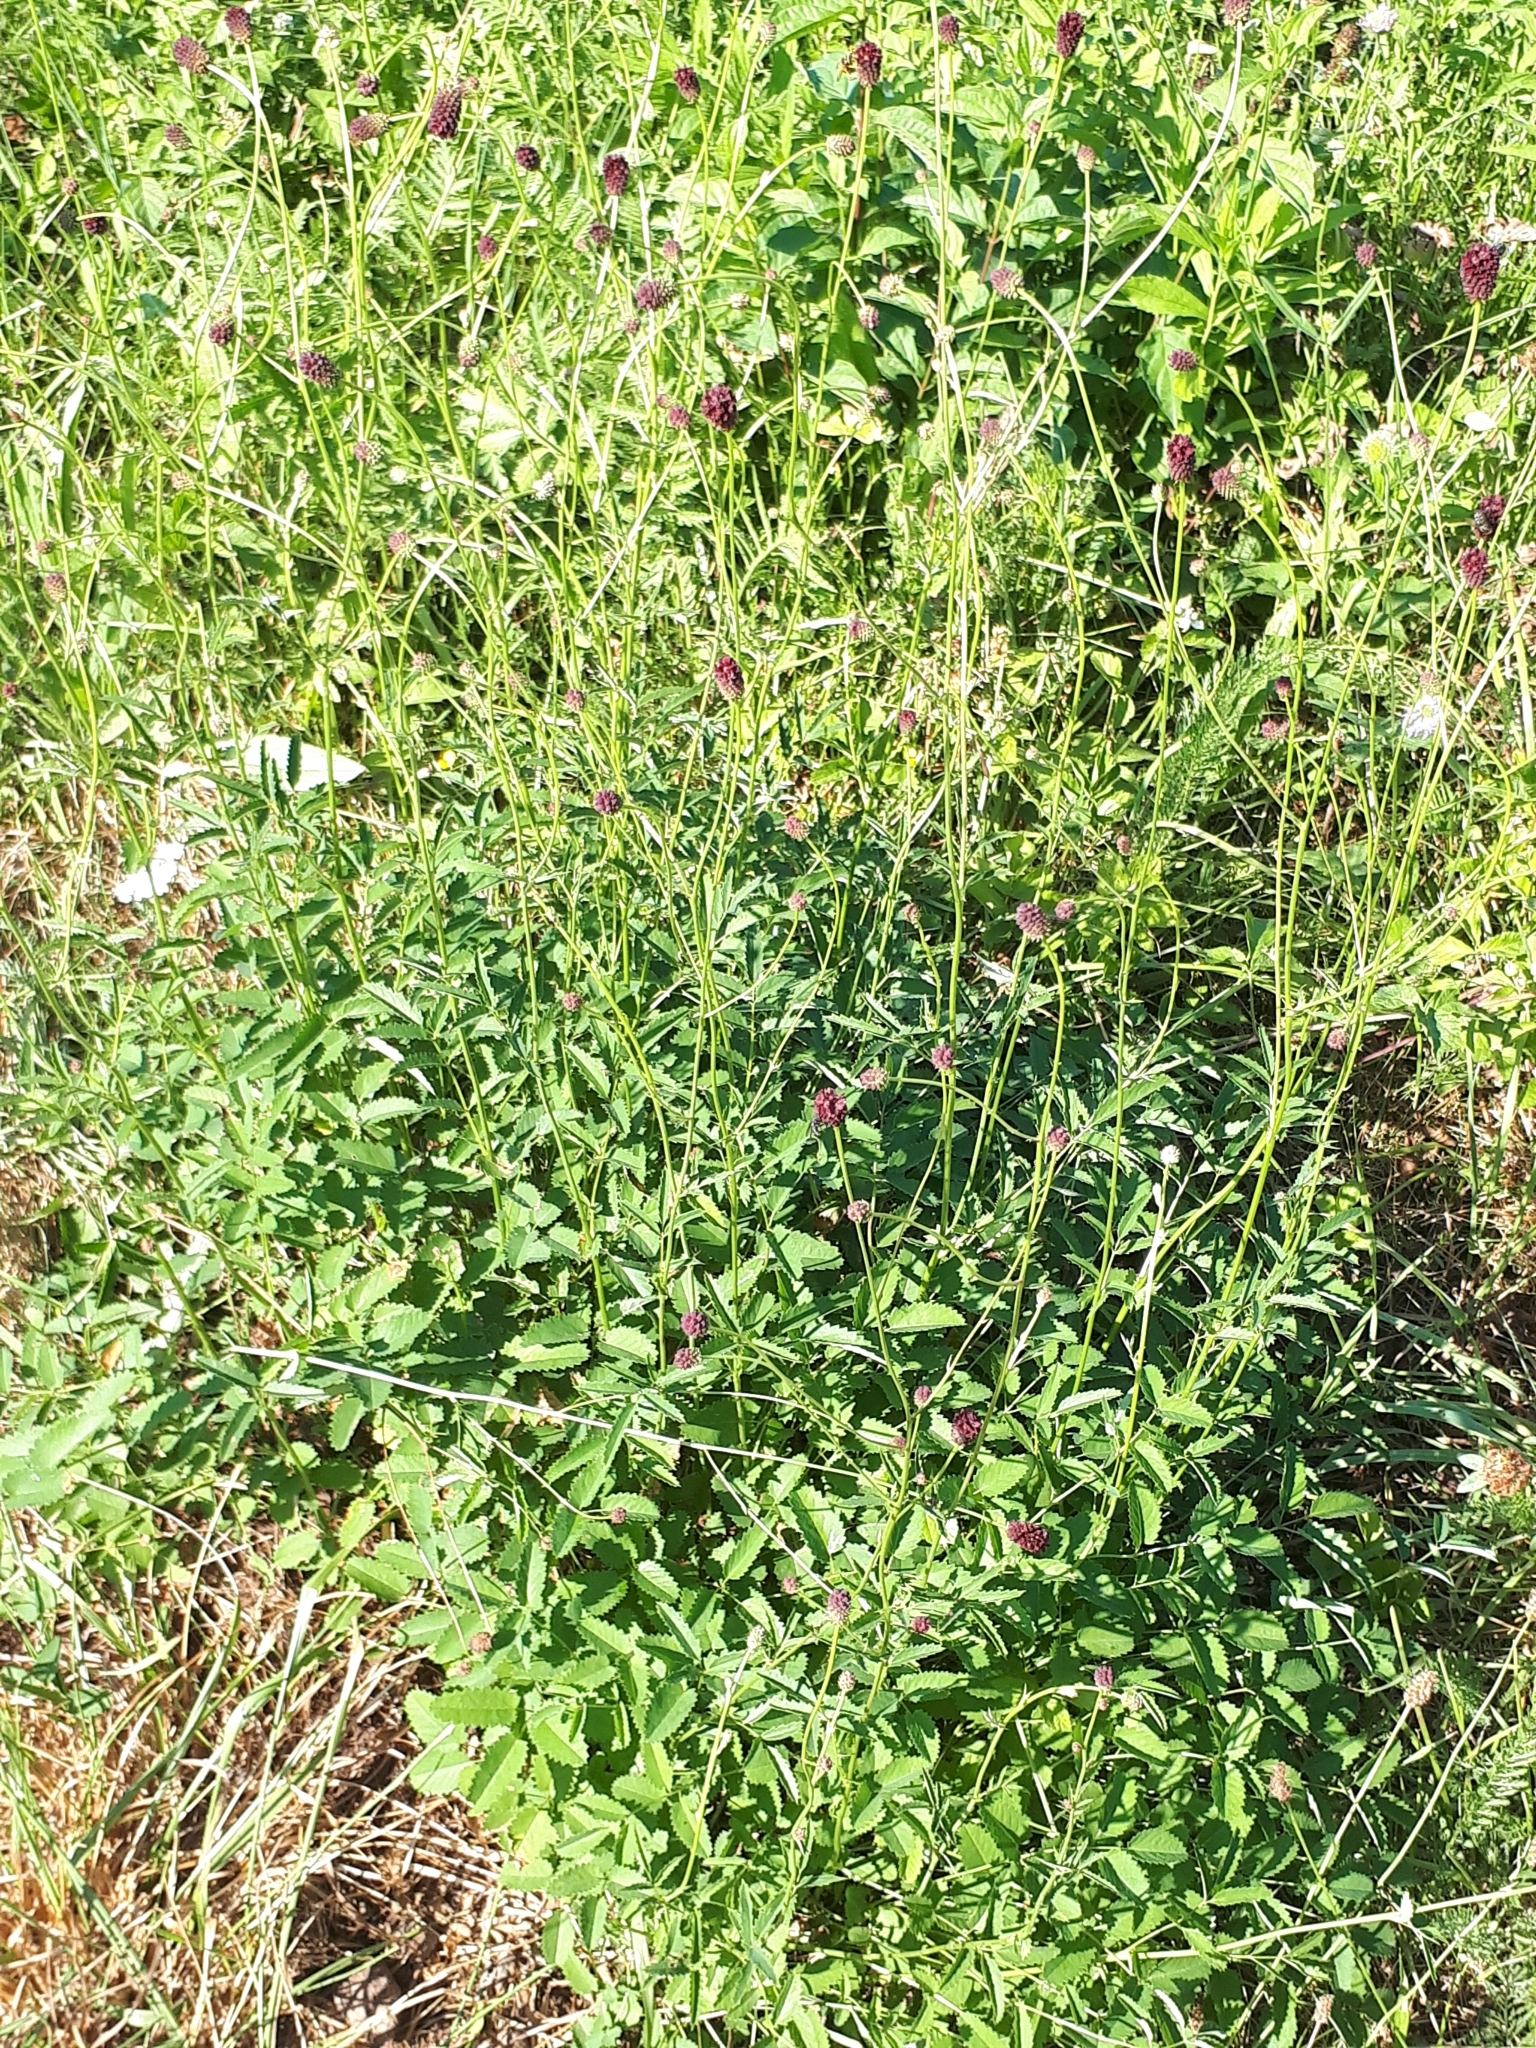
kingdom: Plantae
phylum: Tracheophyta
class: Magnoliopsida
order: Rosales
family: Rosaceae
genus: Sanguisorba
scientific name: Sanguisorba officinalis
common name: Great burnet
